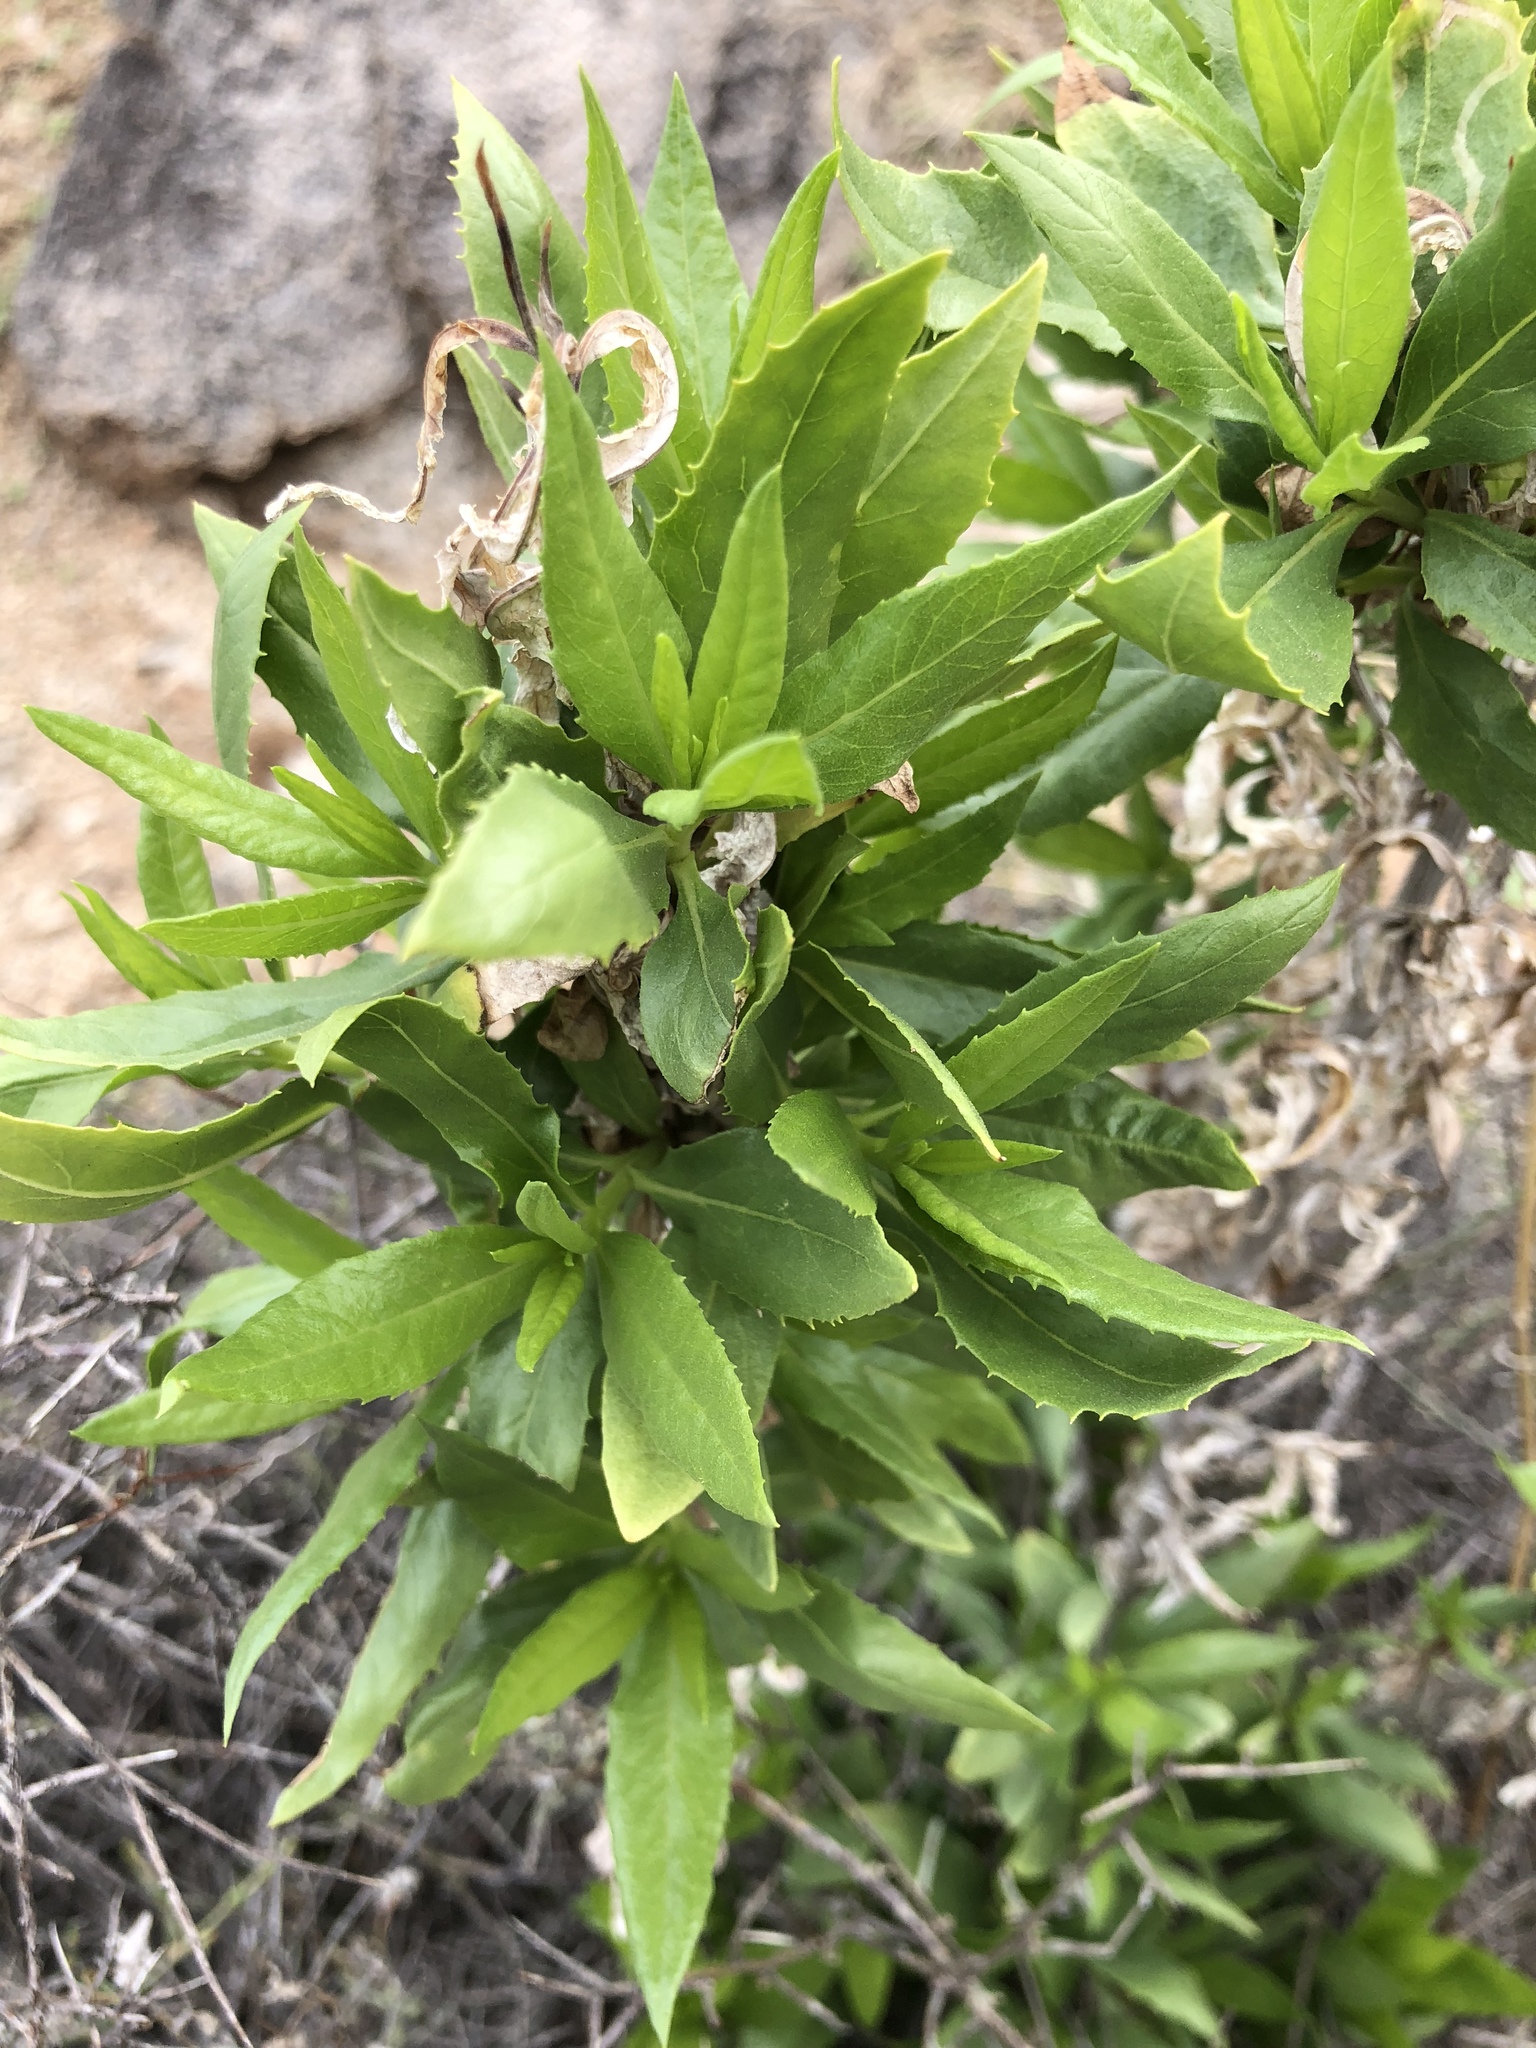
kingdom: Plantae
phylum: Tracheophyta
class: Magnoliopsida
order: Asterales
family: Asteraceae
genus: Trixis
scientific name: Trixis californica
